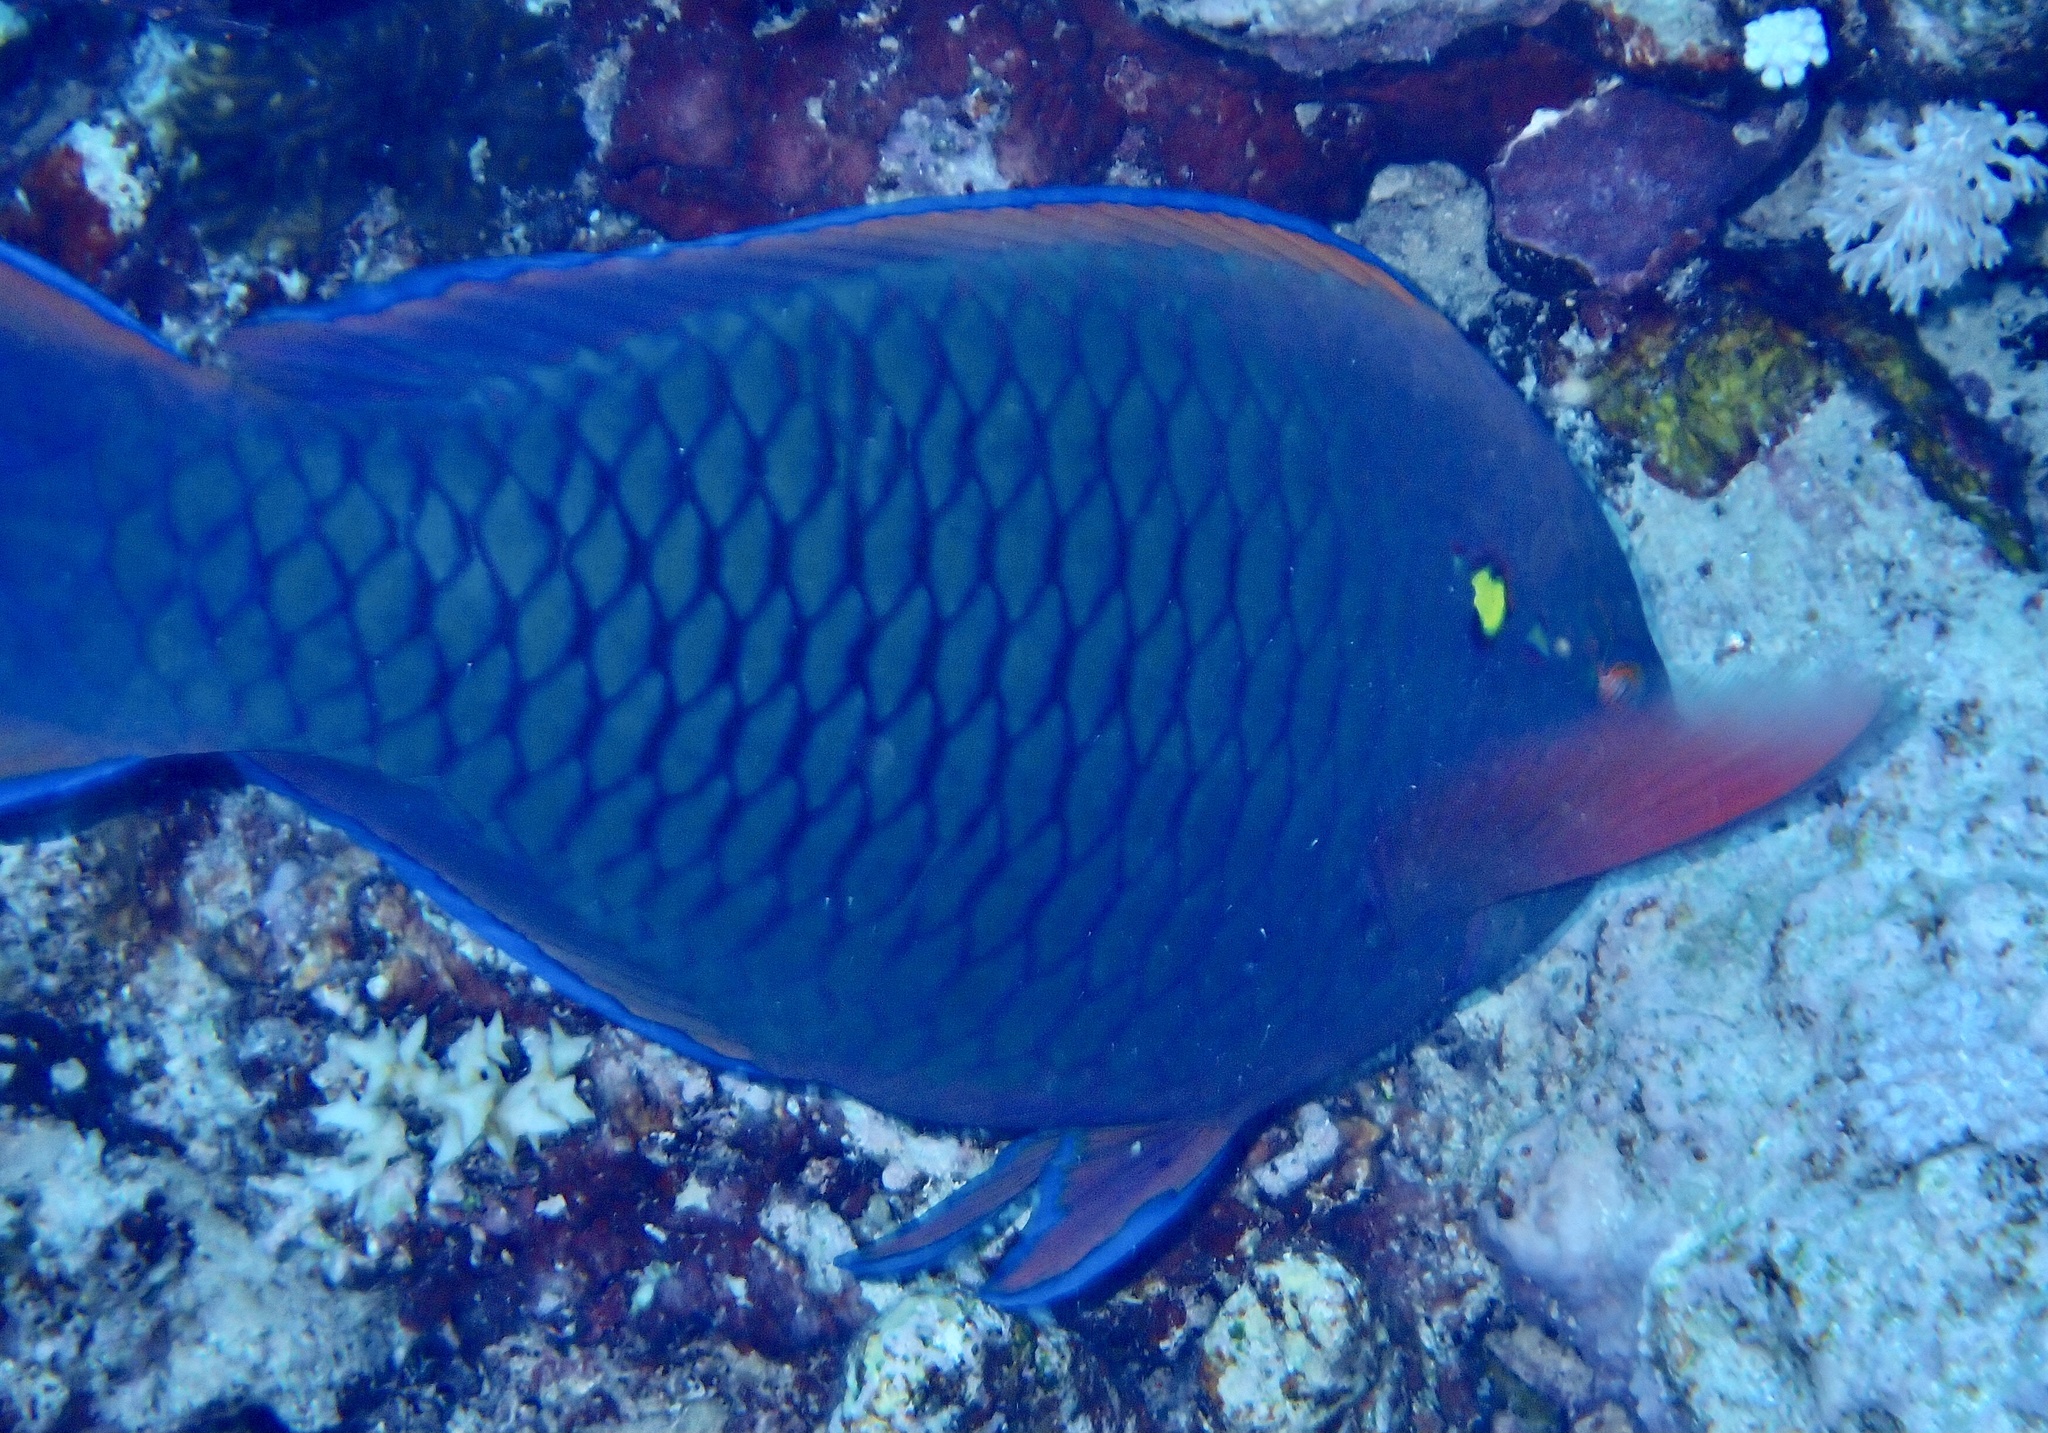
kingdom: Animalia
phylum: Chordata
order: Perciformes
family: Scaridae
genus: Scarus
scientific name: Scarus niger
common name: Dusky parrotfish
